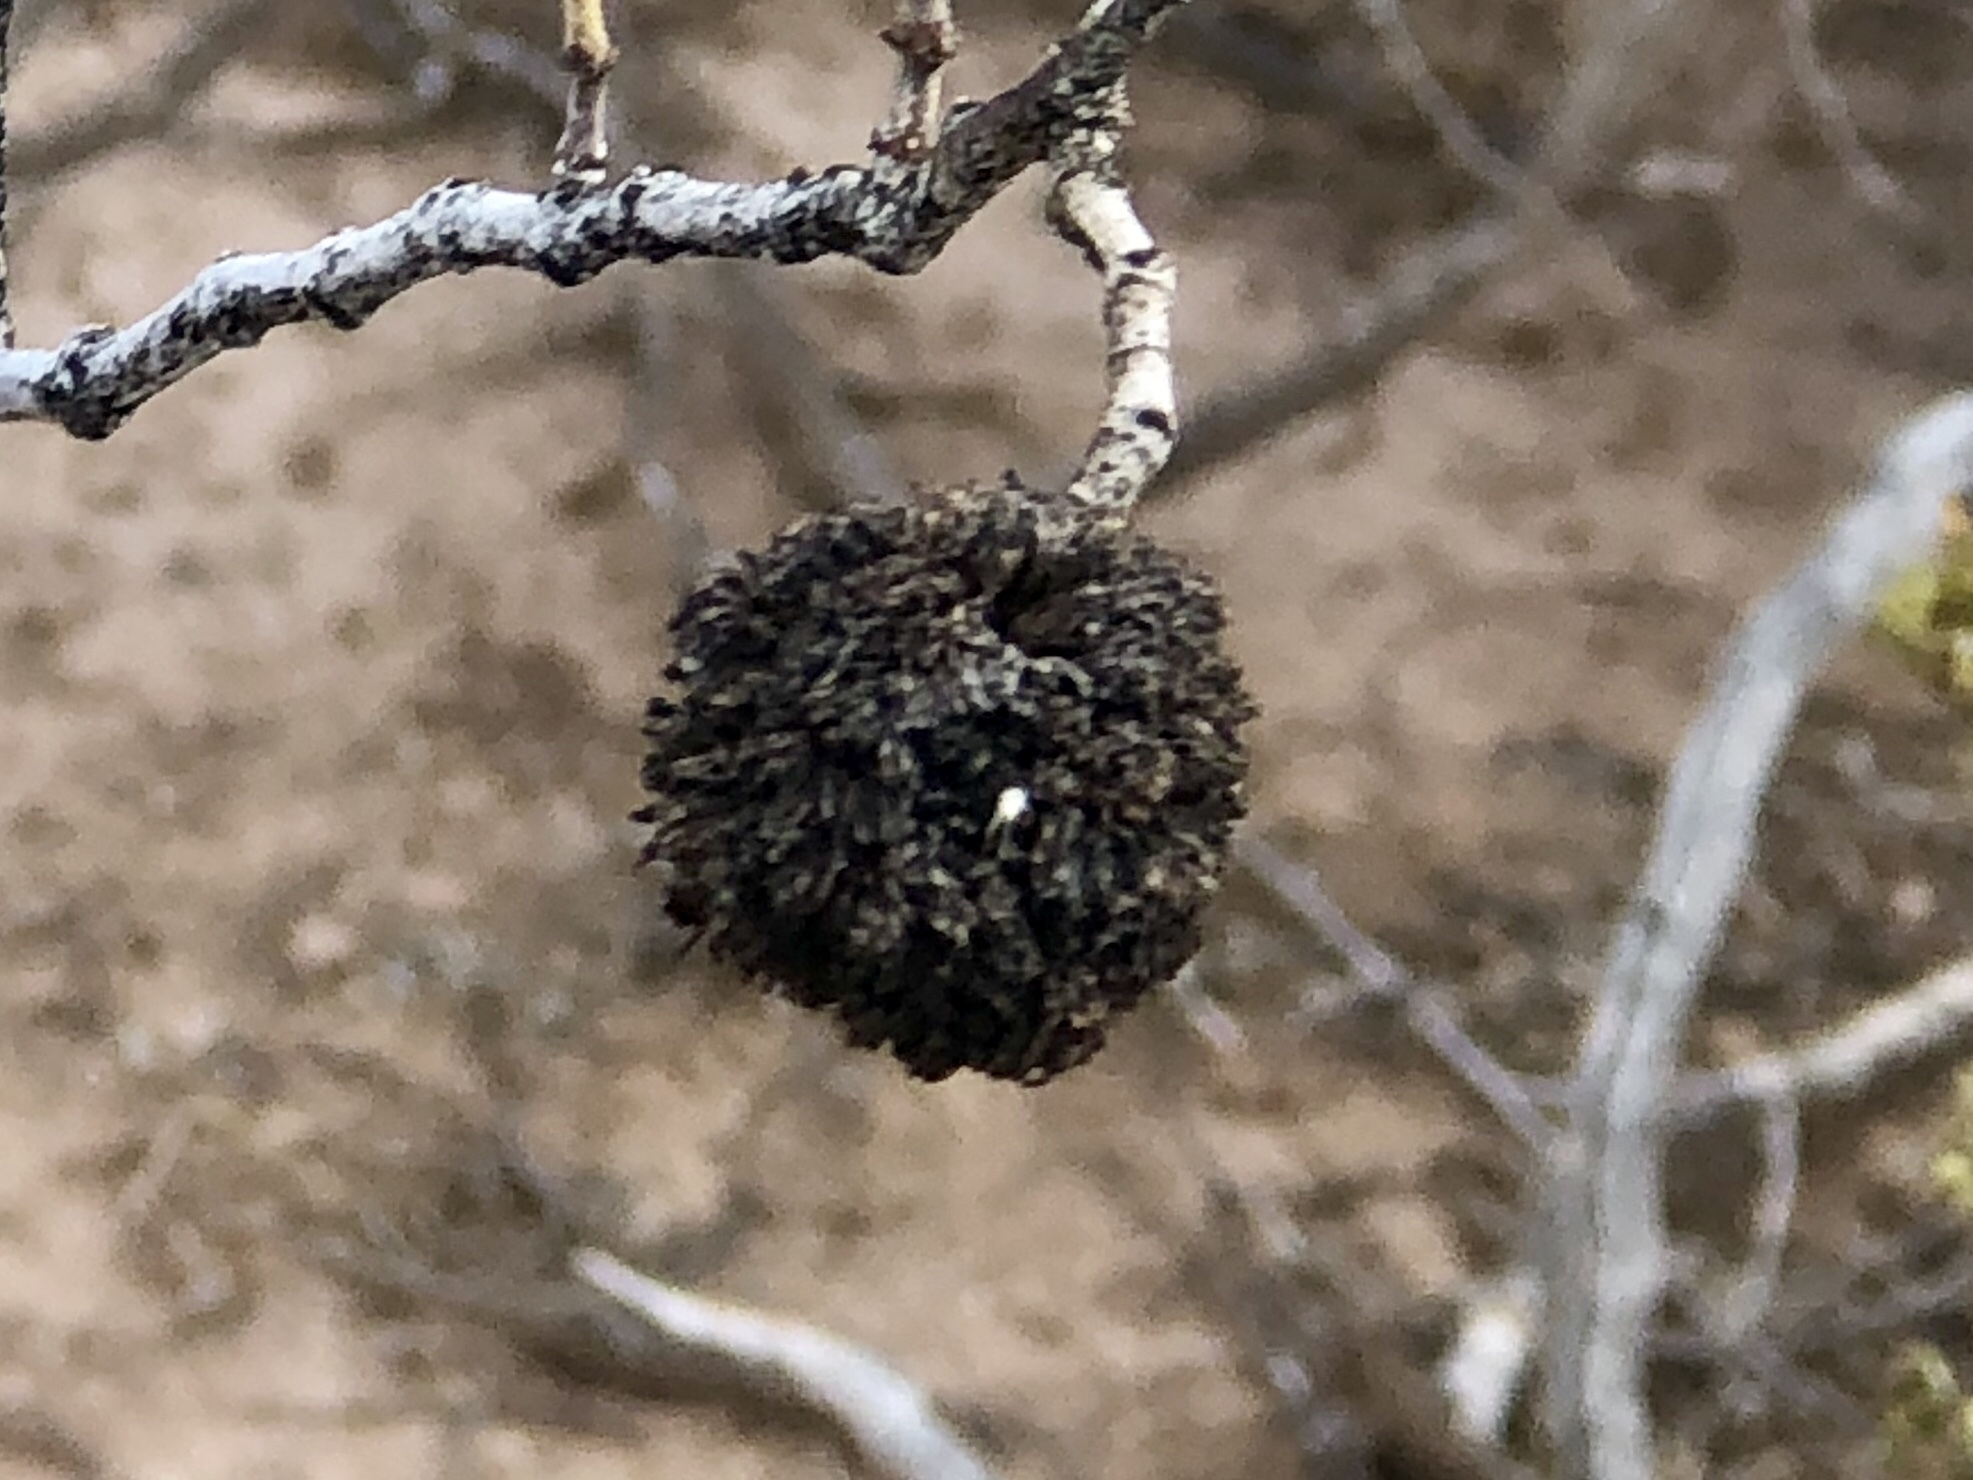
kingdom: Animalia
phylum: Arthropoda
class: Insecta
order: Diptera
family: Cecidomyiidae
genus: Asphondylia
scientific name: Asphondylia auripila
